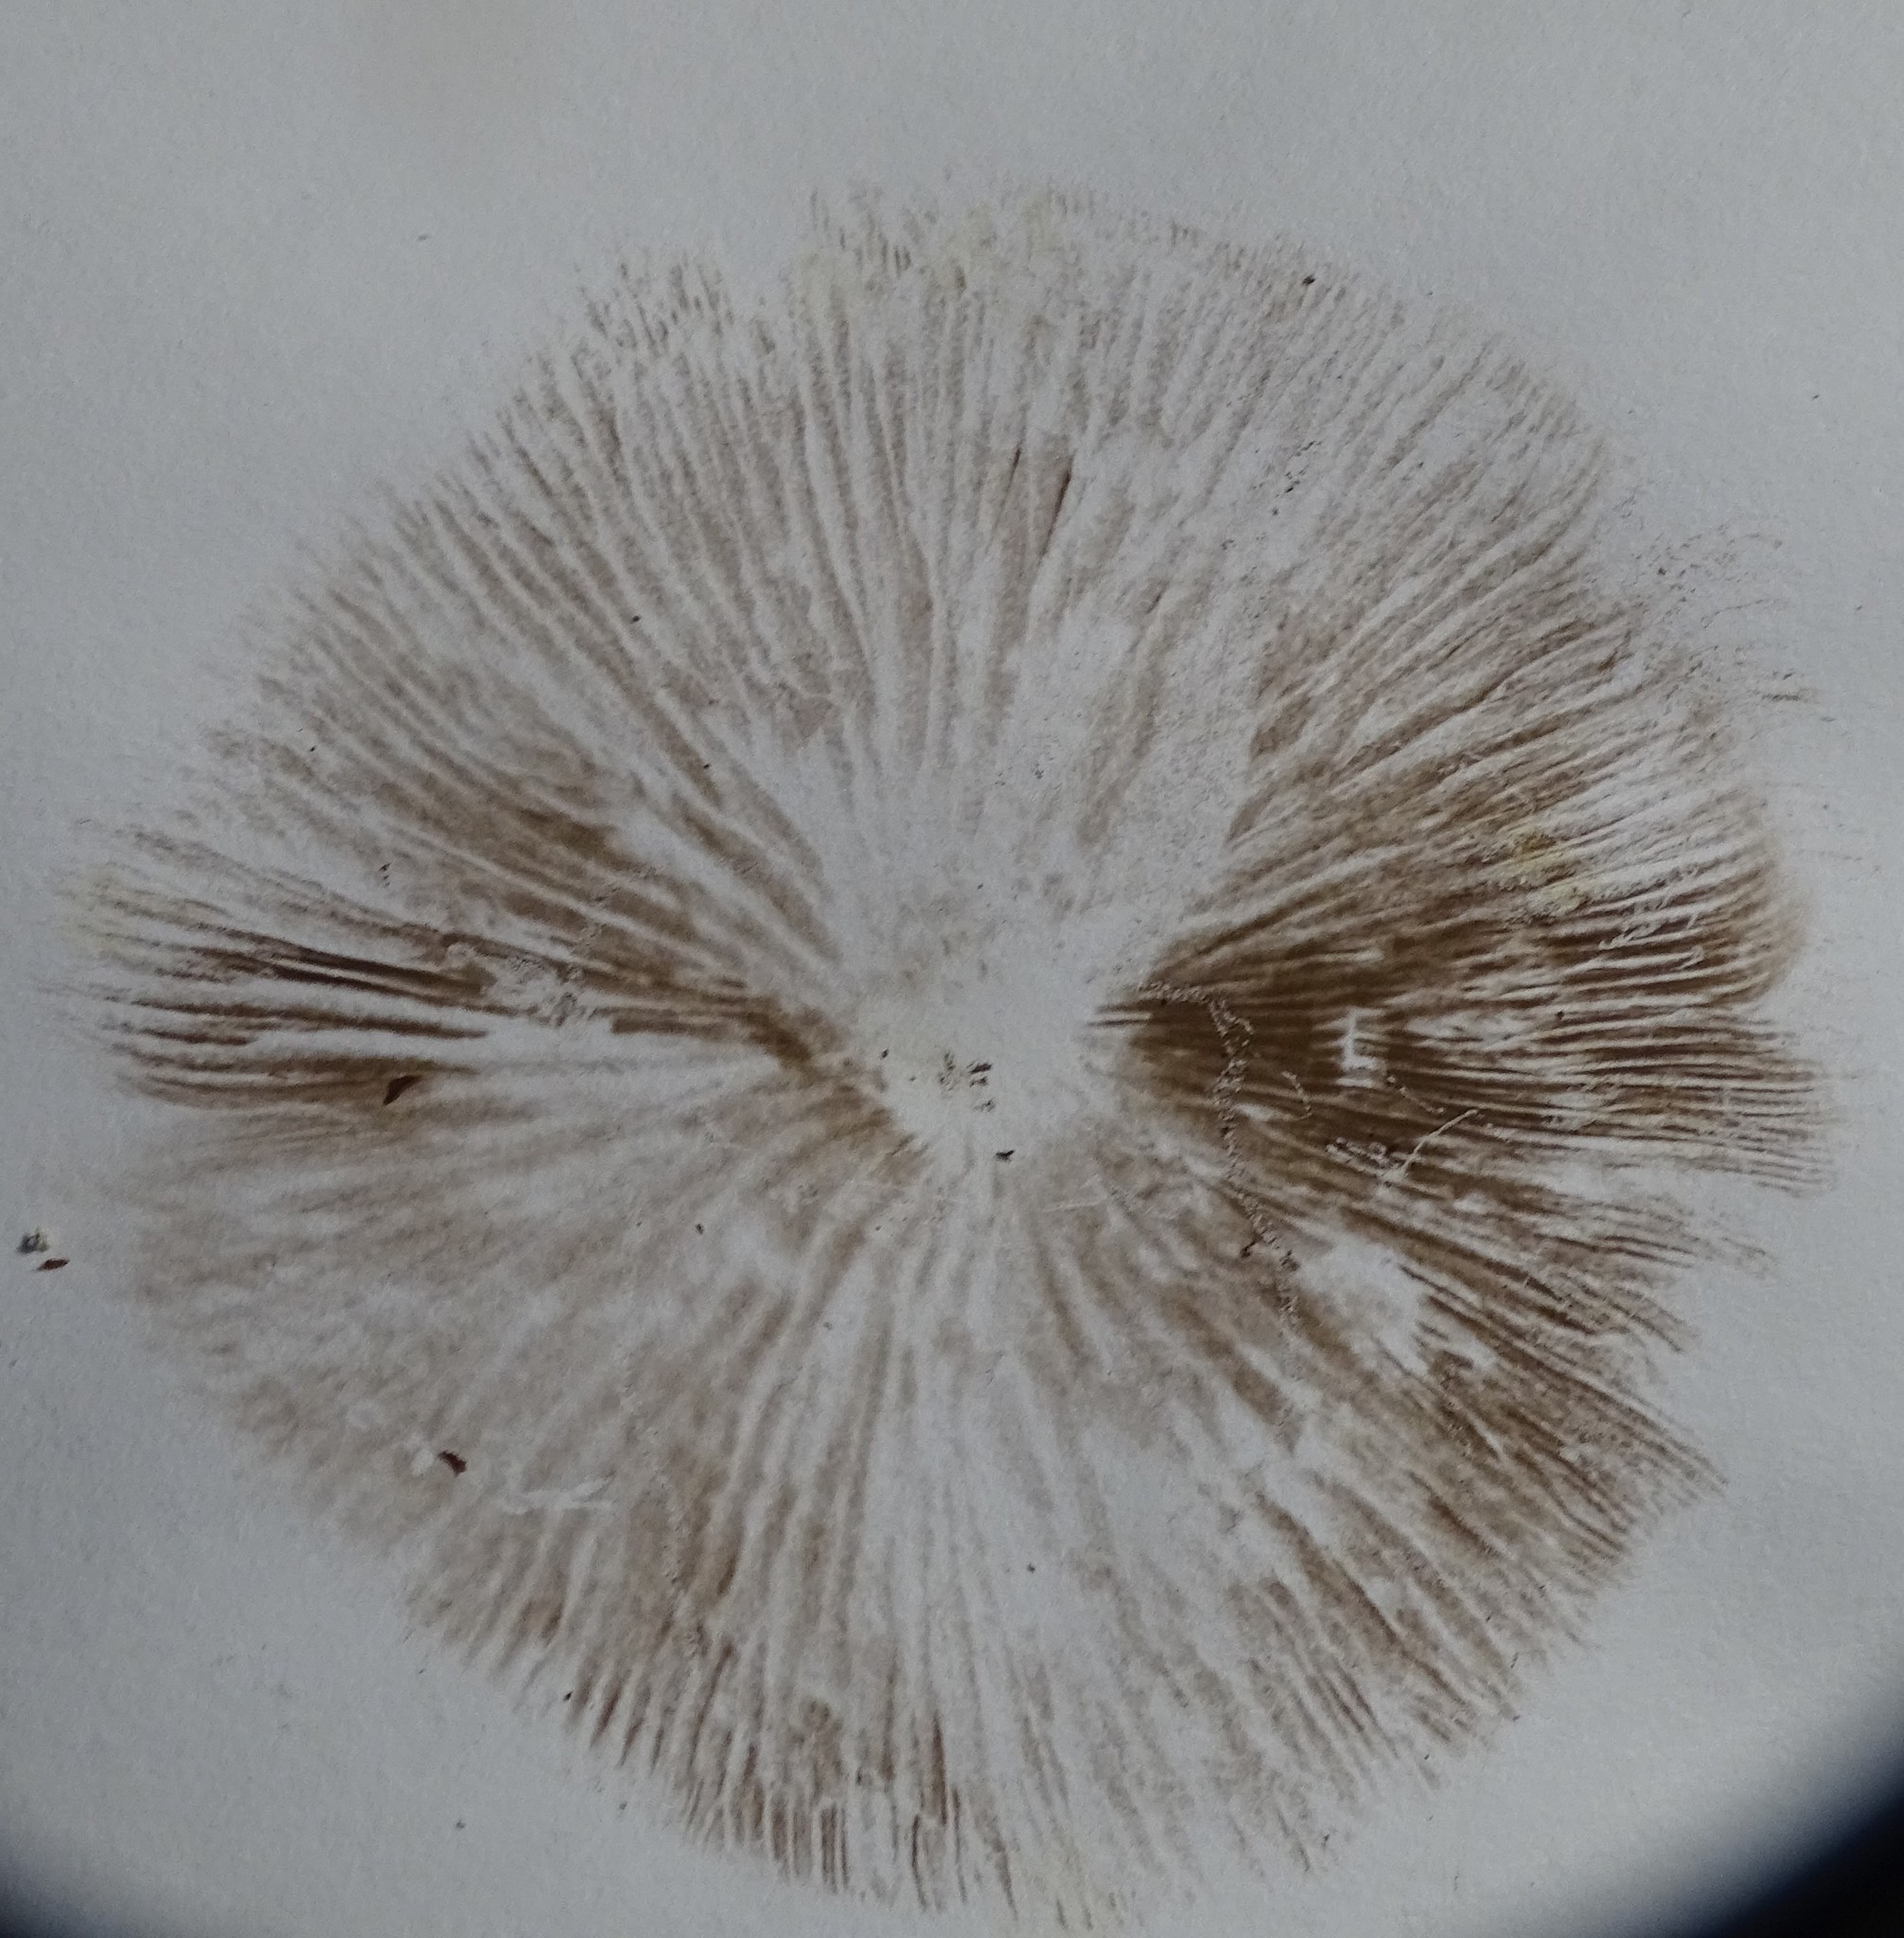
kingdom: Fungi
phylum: Basidiomycota
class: Agaricomycetes
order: Agaricales
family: Hymenogastraceae
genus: Galerina
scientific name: Galerina marginata
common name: Funeral bell
